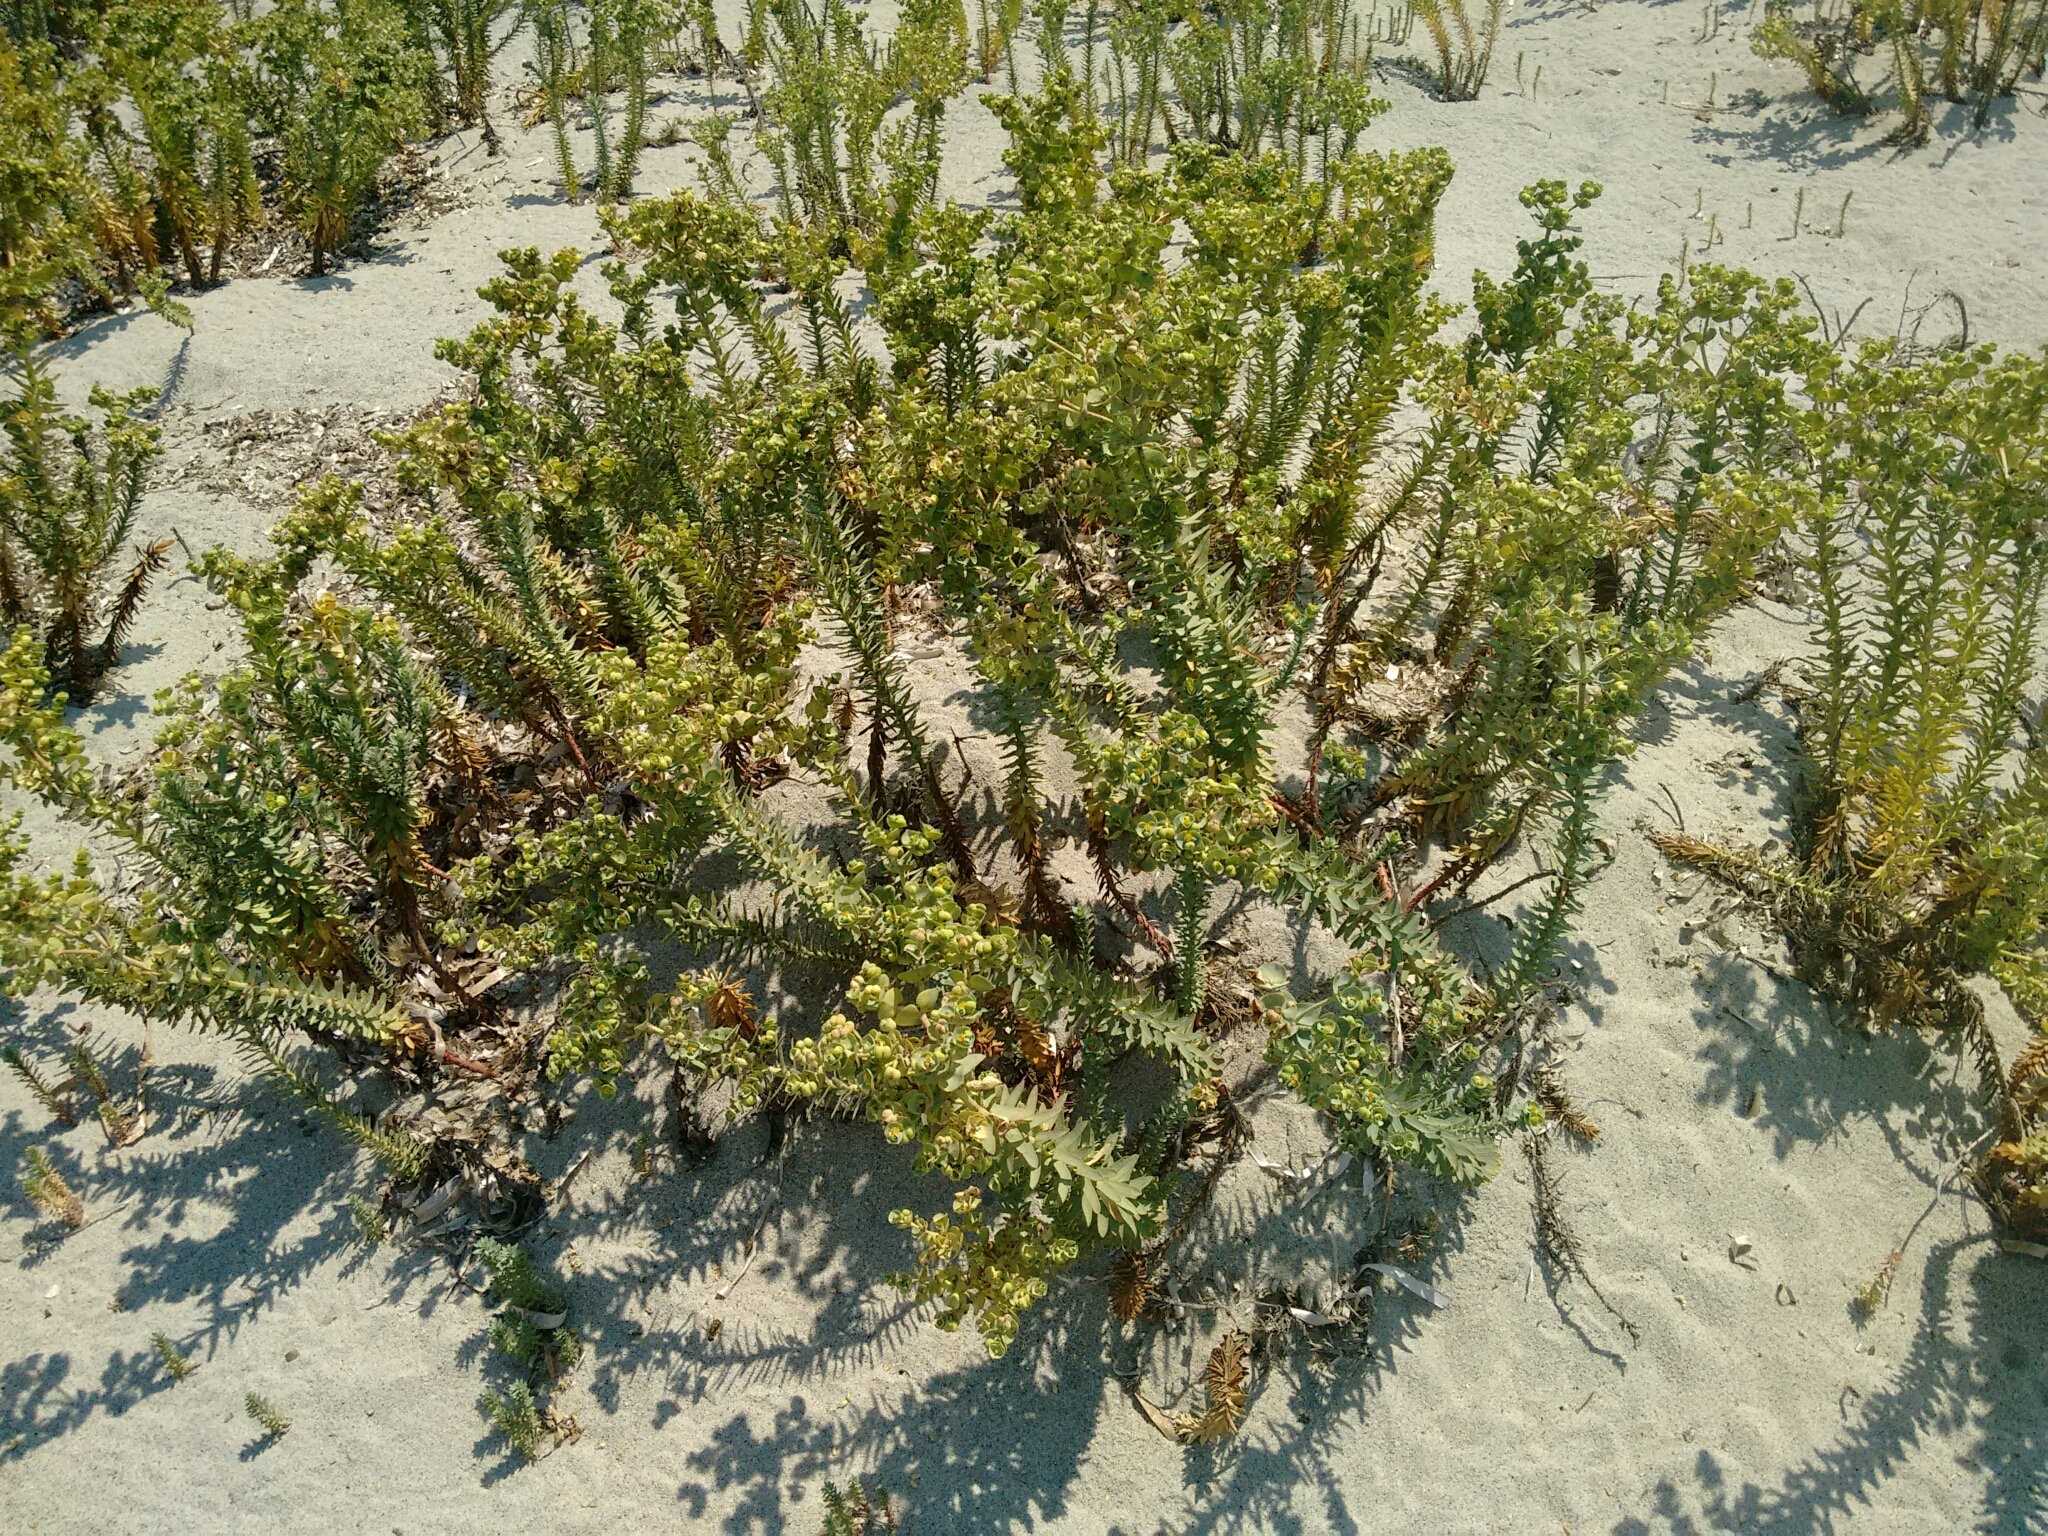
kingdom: Plantae
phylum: Tracheophyta
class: Magnoliopsida
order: Malpighiales
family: Euphorbiaceae
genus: Euphorbia
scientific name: Euphorbia paralias
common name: Sea spurge
